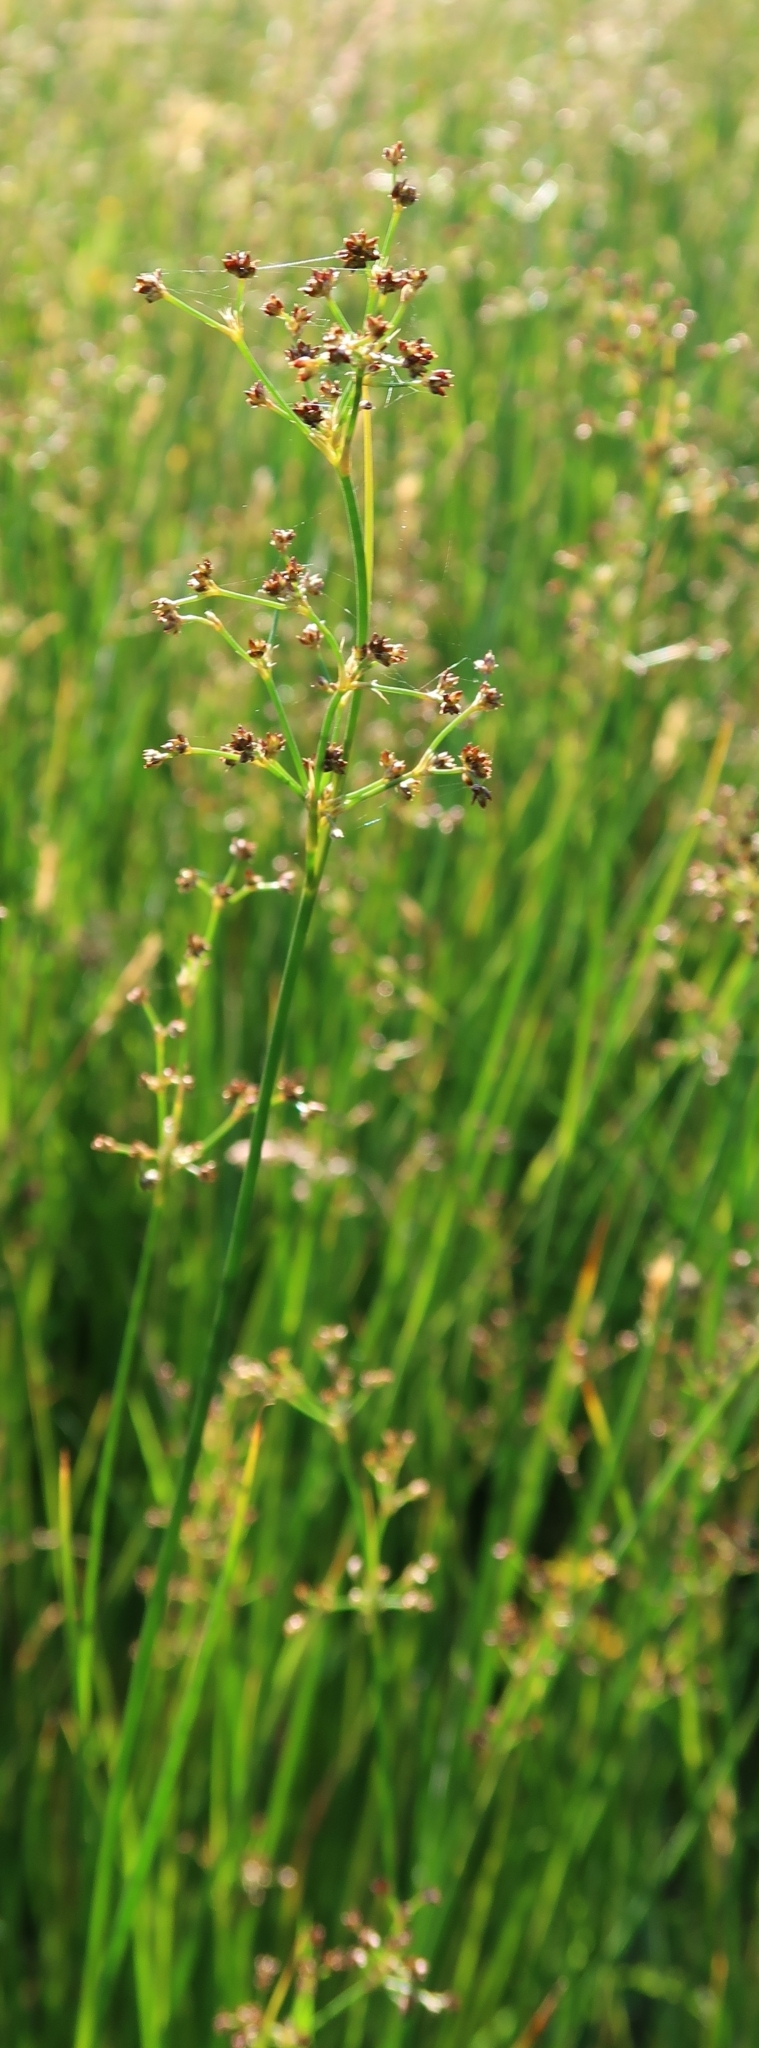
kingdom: Plantae
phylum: Tracheophyta
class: Liliopsida
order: Poales
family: Juncaceae
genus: Juncus
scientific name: Juncus subnodulosus
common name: Blunt-flowered rush
